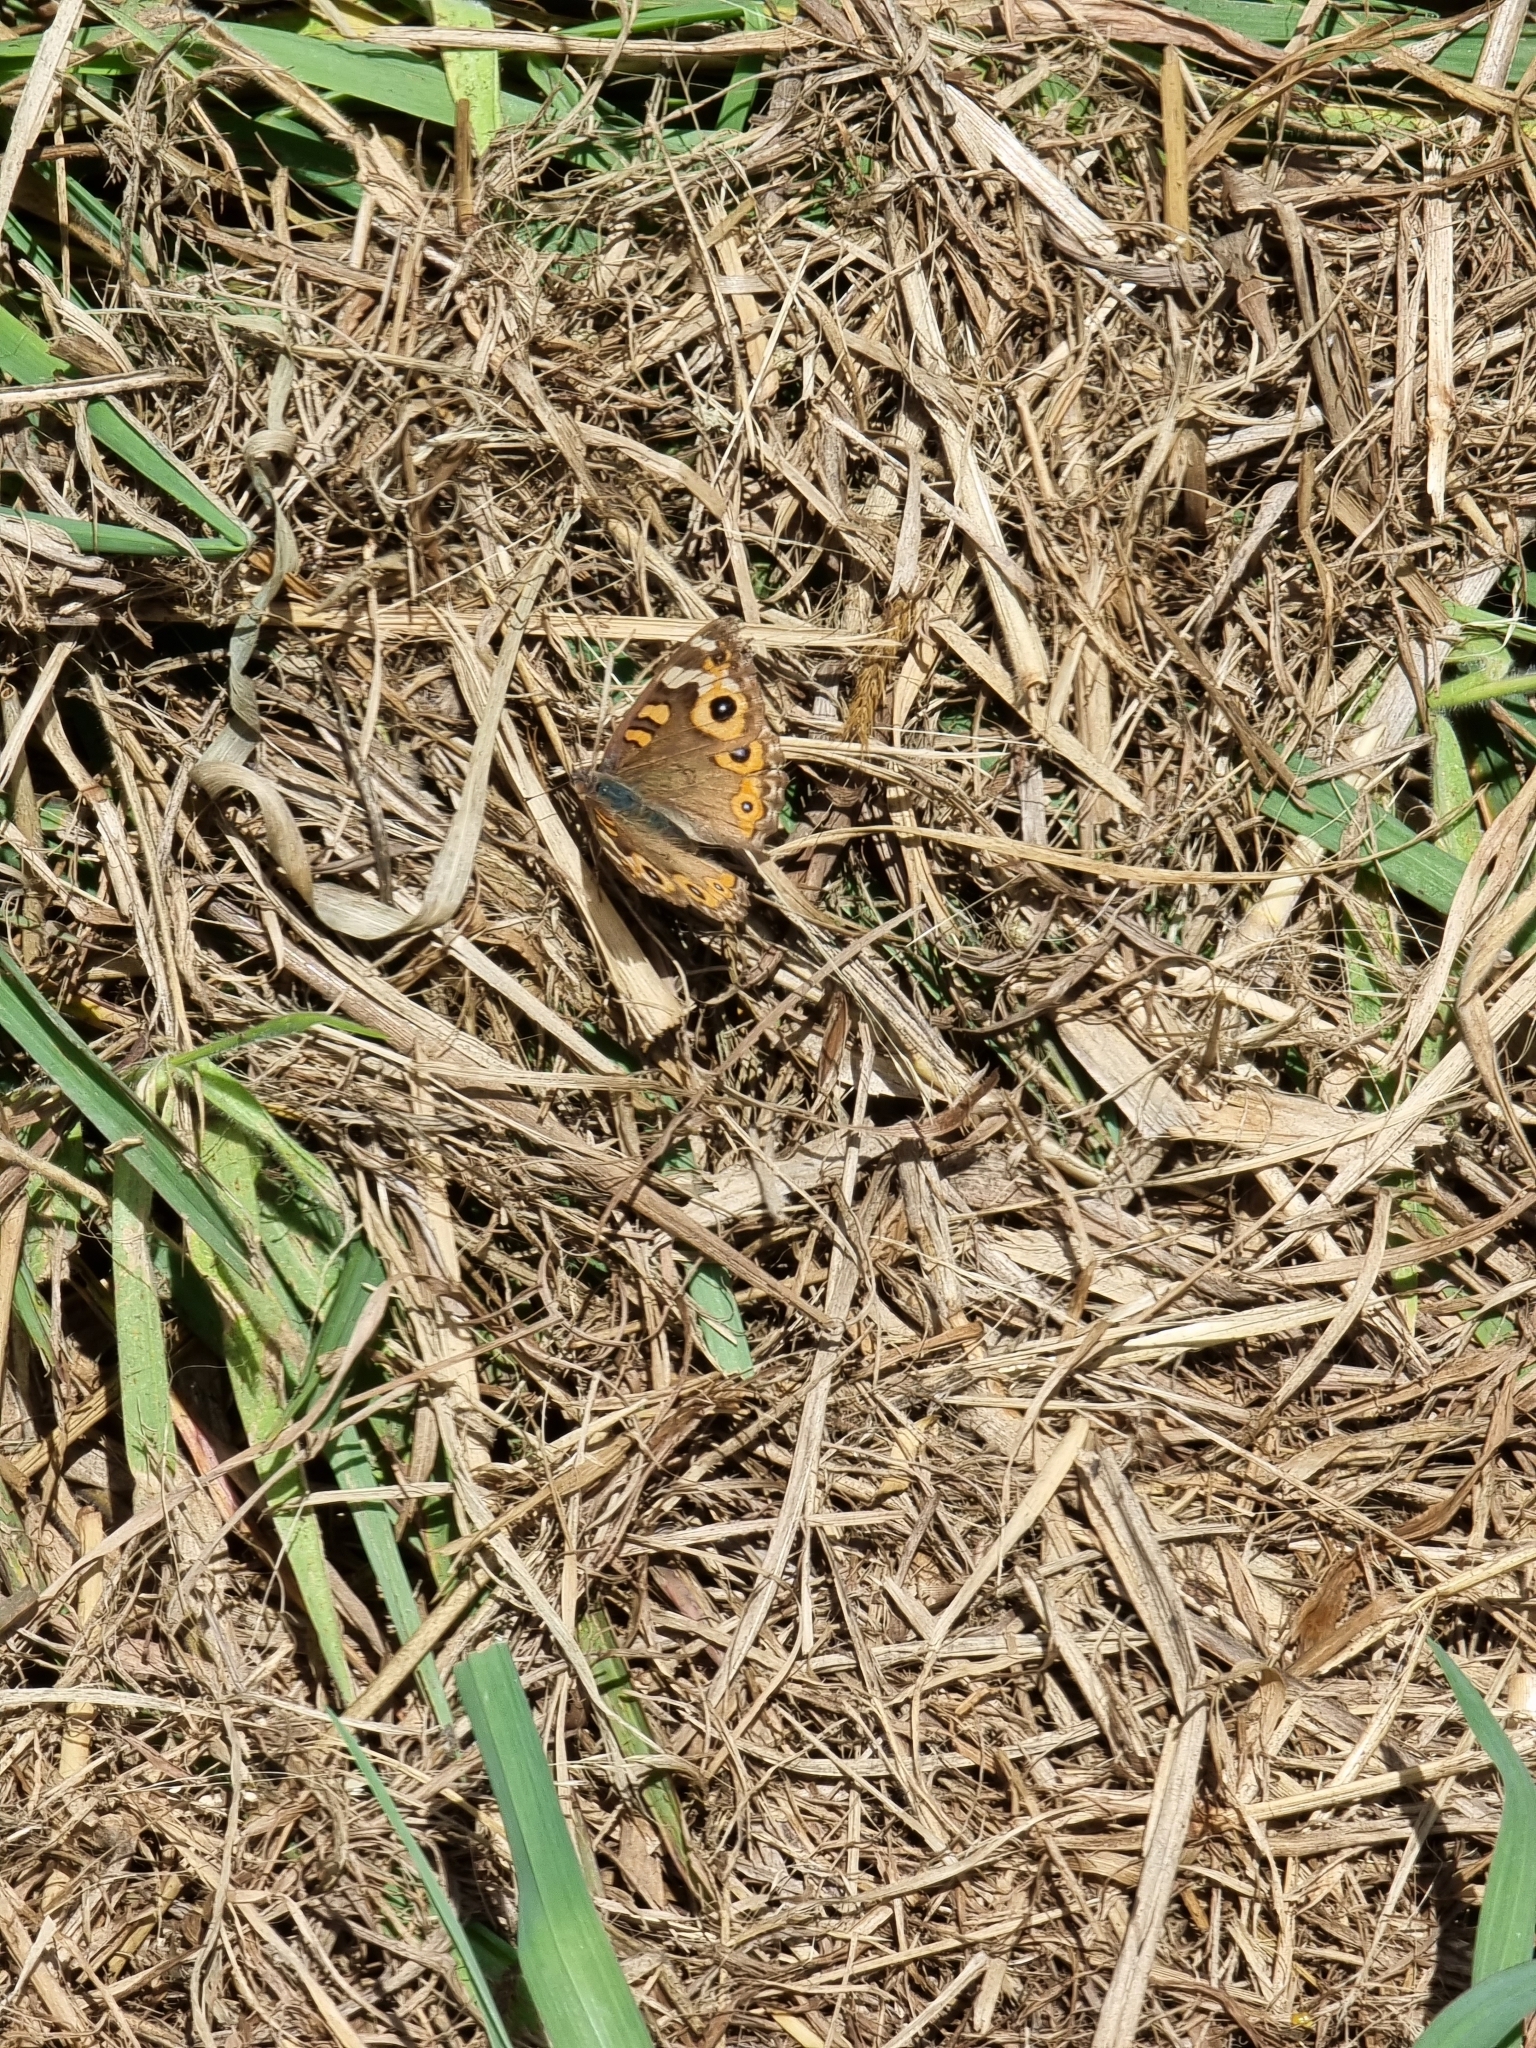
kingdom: Animalia
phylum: Arthropoda
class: Insecta
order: Lepidoptera
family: Nymphalidae
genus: Junonia
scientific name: Junonia villida
